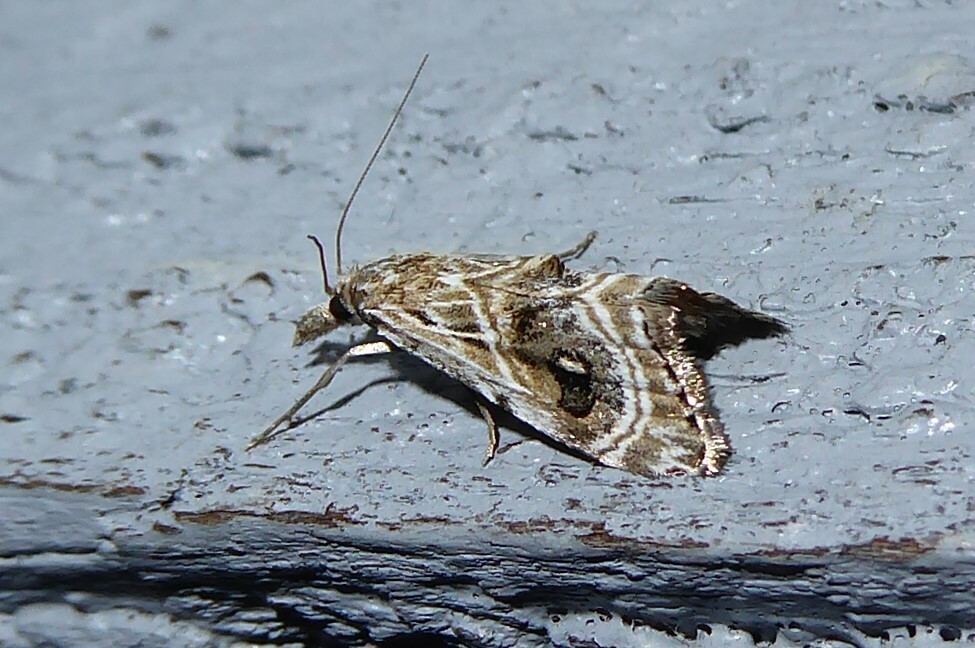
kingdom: Animalia
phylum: Arthropoda
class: Insecta
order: Lepidoptera
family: Crambidae
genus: Gadira
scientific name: Gadira acerella
